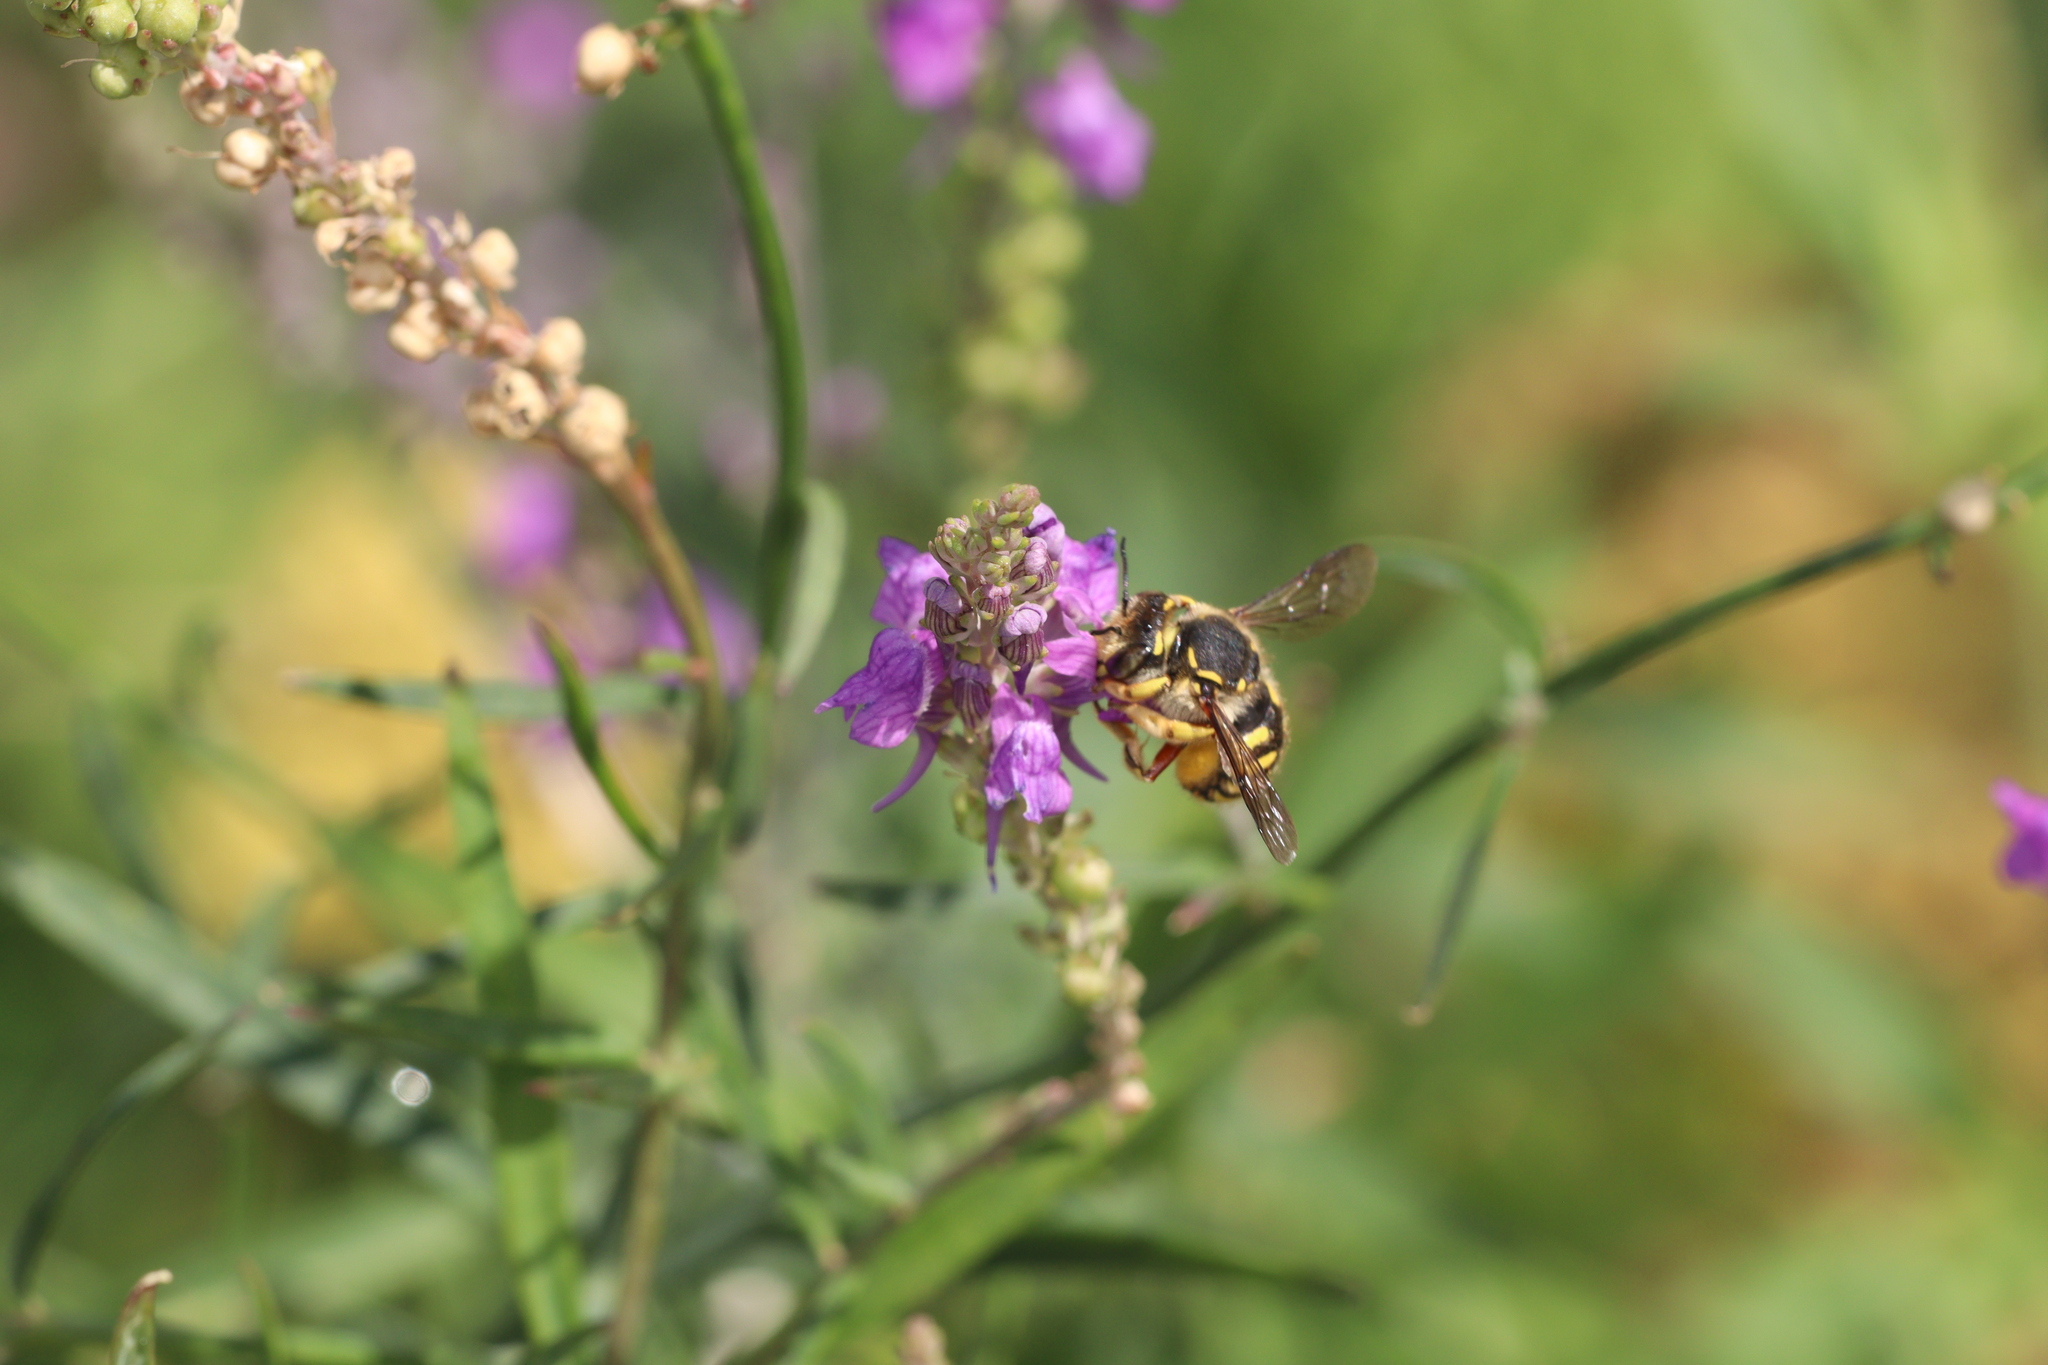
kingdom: Animalia
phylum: Arthropoda
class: Insecta
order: Hymenoptera
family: Megachilidae
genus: Anthidium
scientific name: Anthidium manicatum
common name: Wool carder bee
